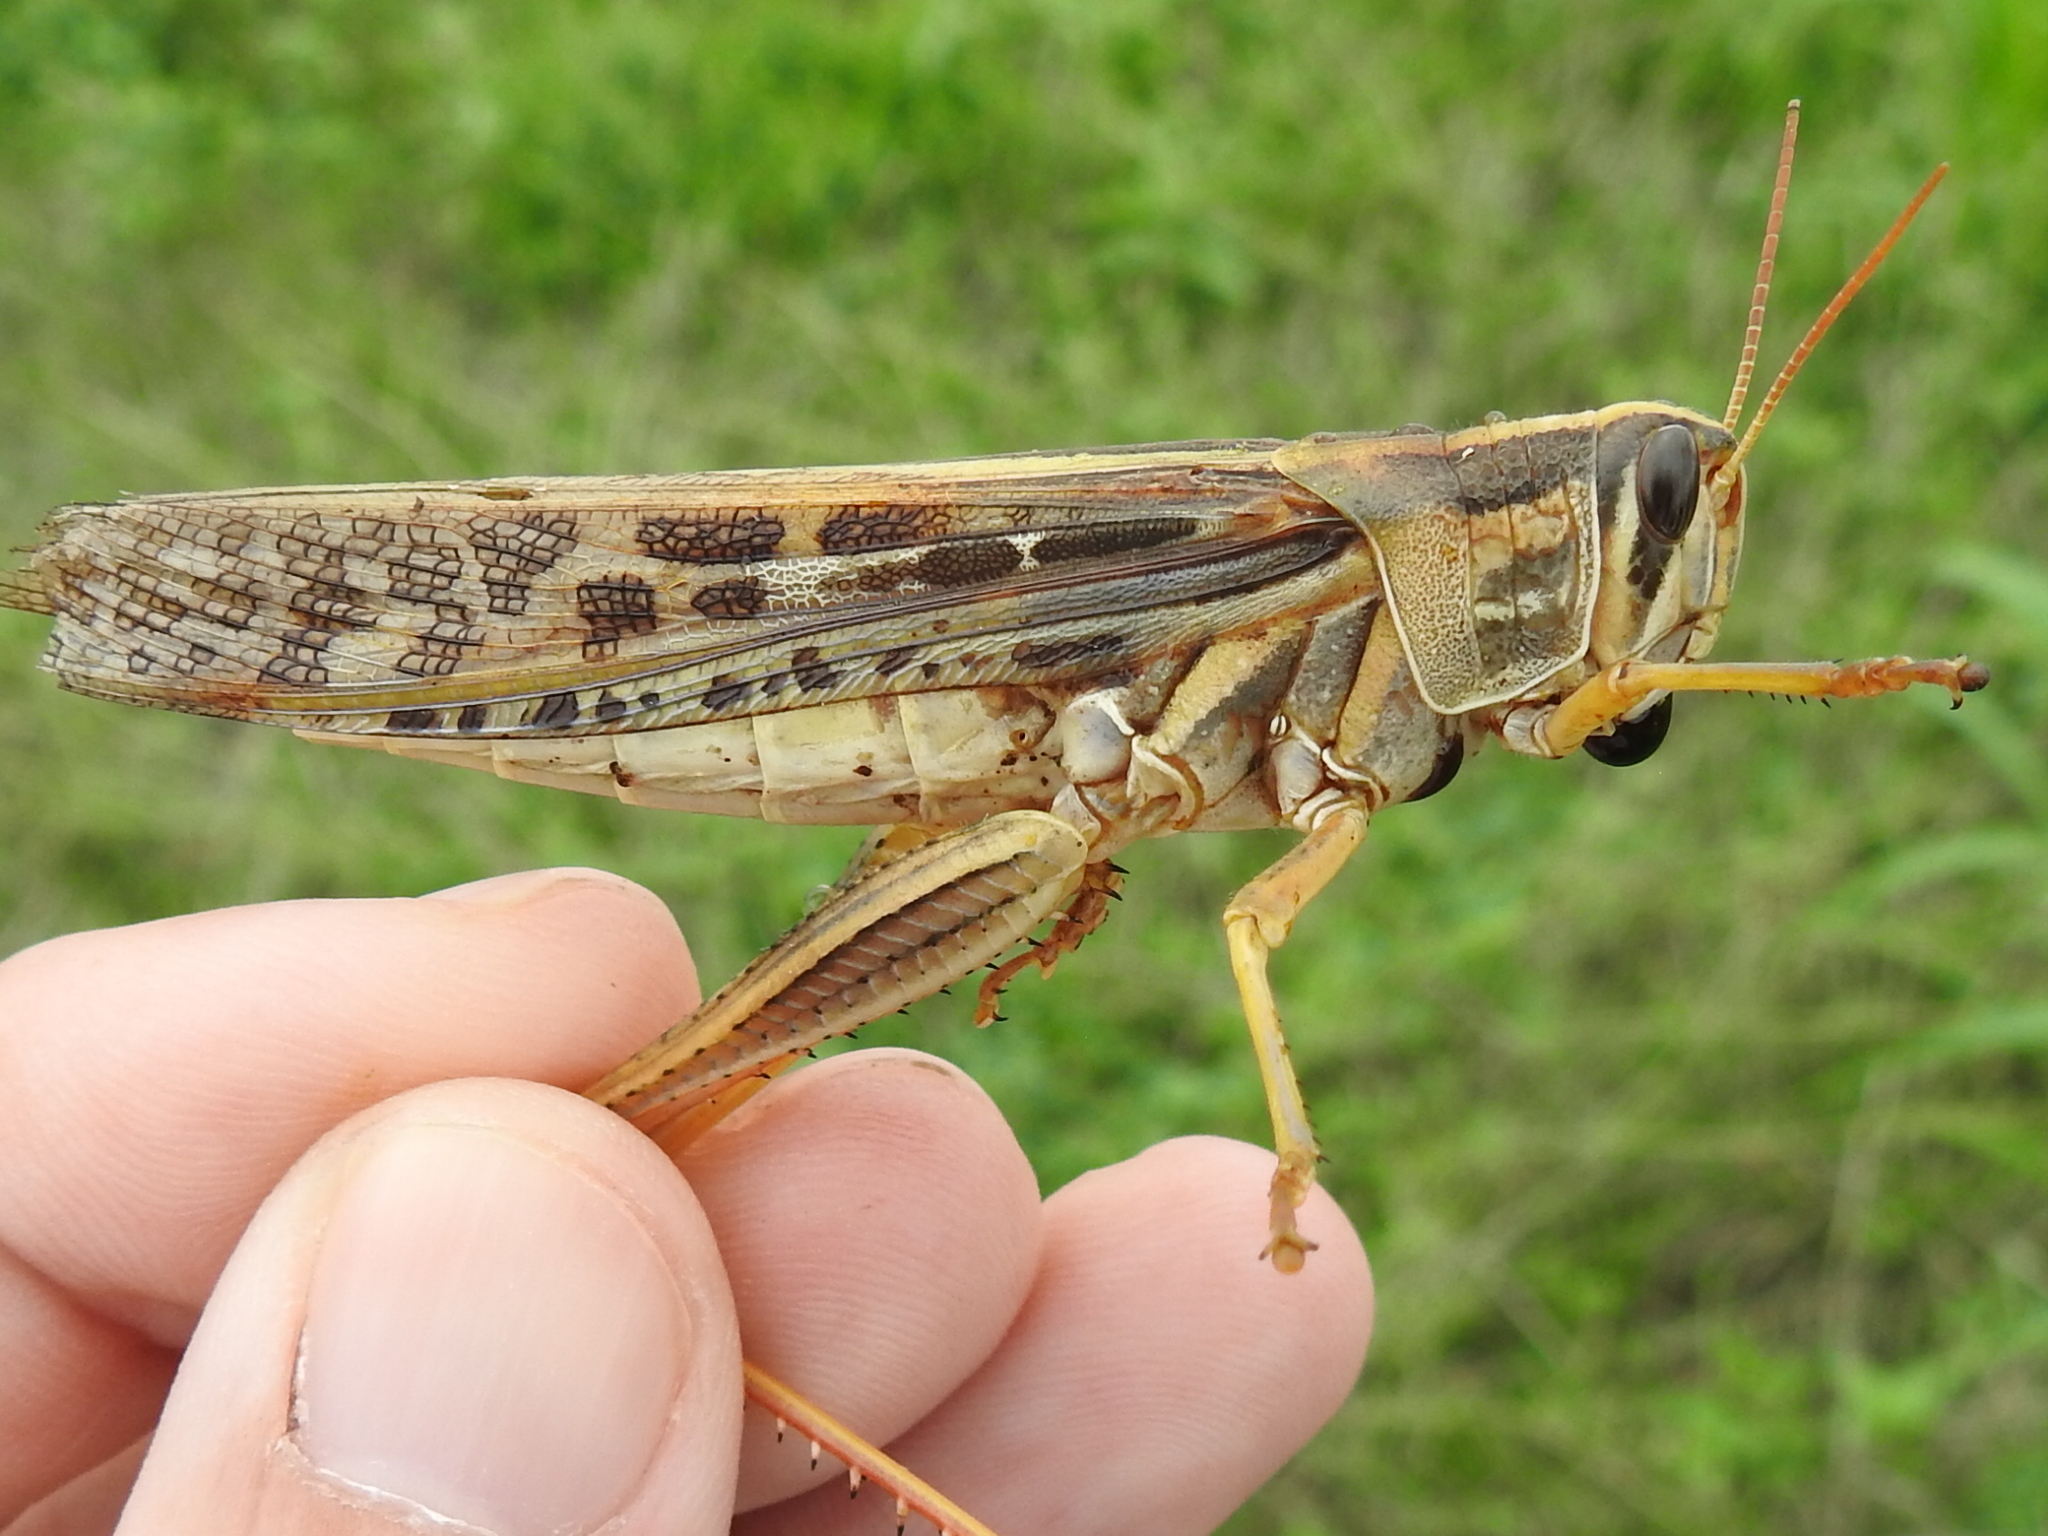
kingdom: Animalia
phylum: Arthropoda
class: Insecta
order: Orthoptera
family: Acrididae
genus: Schistocerca
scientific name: Schistocerca americana
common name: American bird locust
